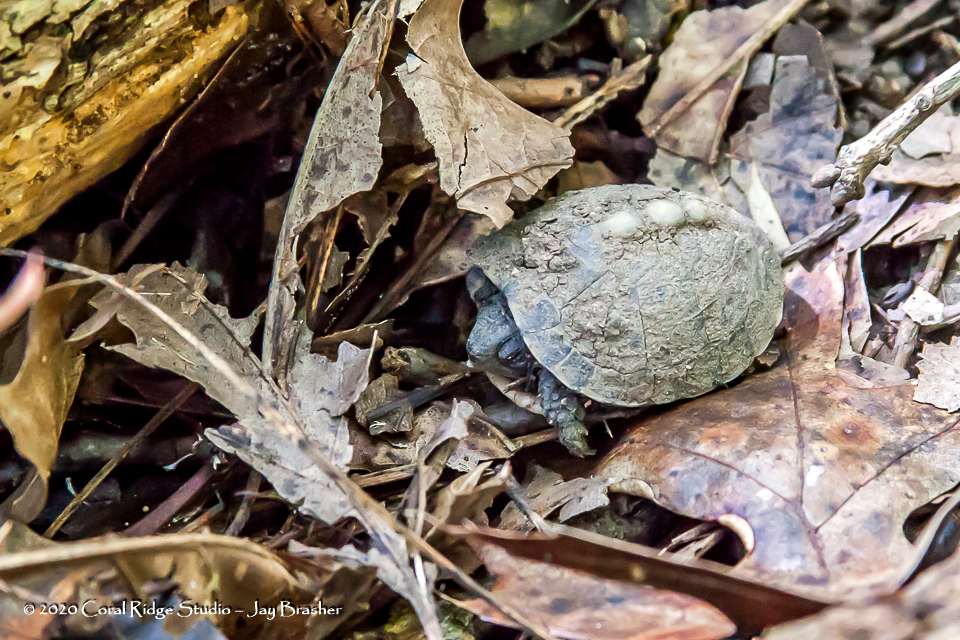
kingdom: Animalia
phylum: Chordata
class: Testudines
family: Emydidae
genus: Terrapene
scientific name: Terrapene carolina
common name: Common box turtle
